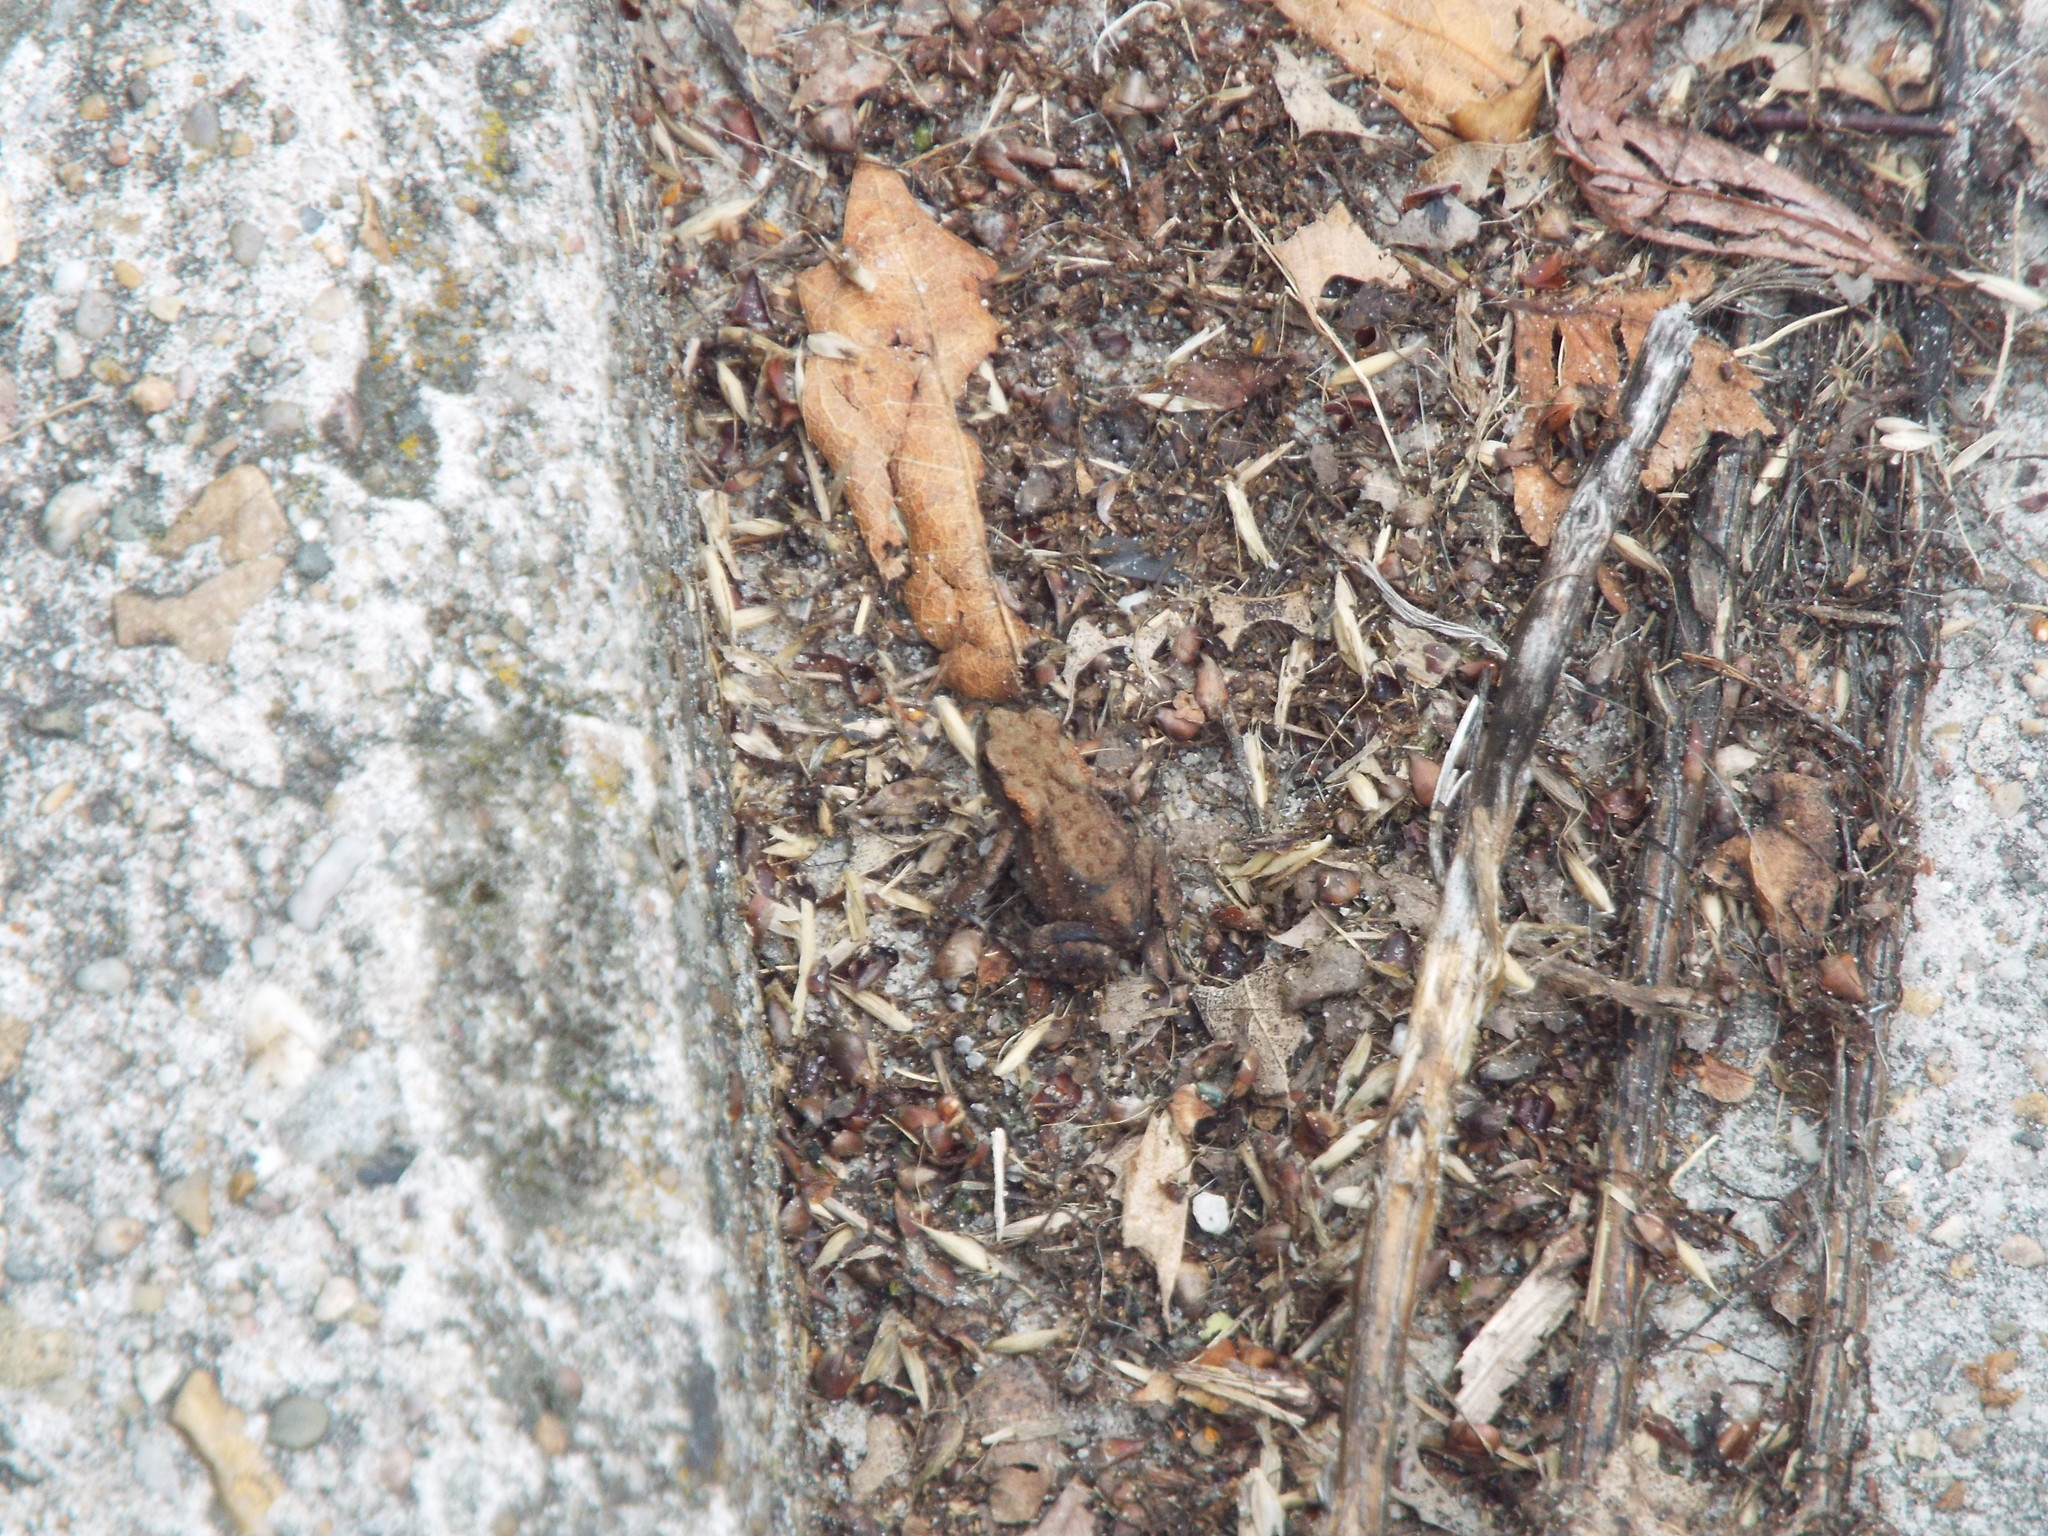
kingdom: Animalia
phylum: Chordata
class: Amphibia
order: Anura
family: Bufonidae
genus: Bufo
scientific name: Bufo bufo
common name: Common toad
